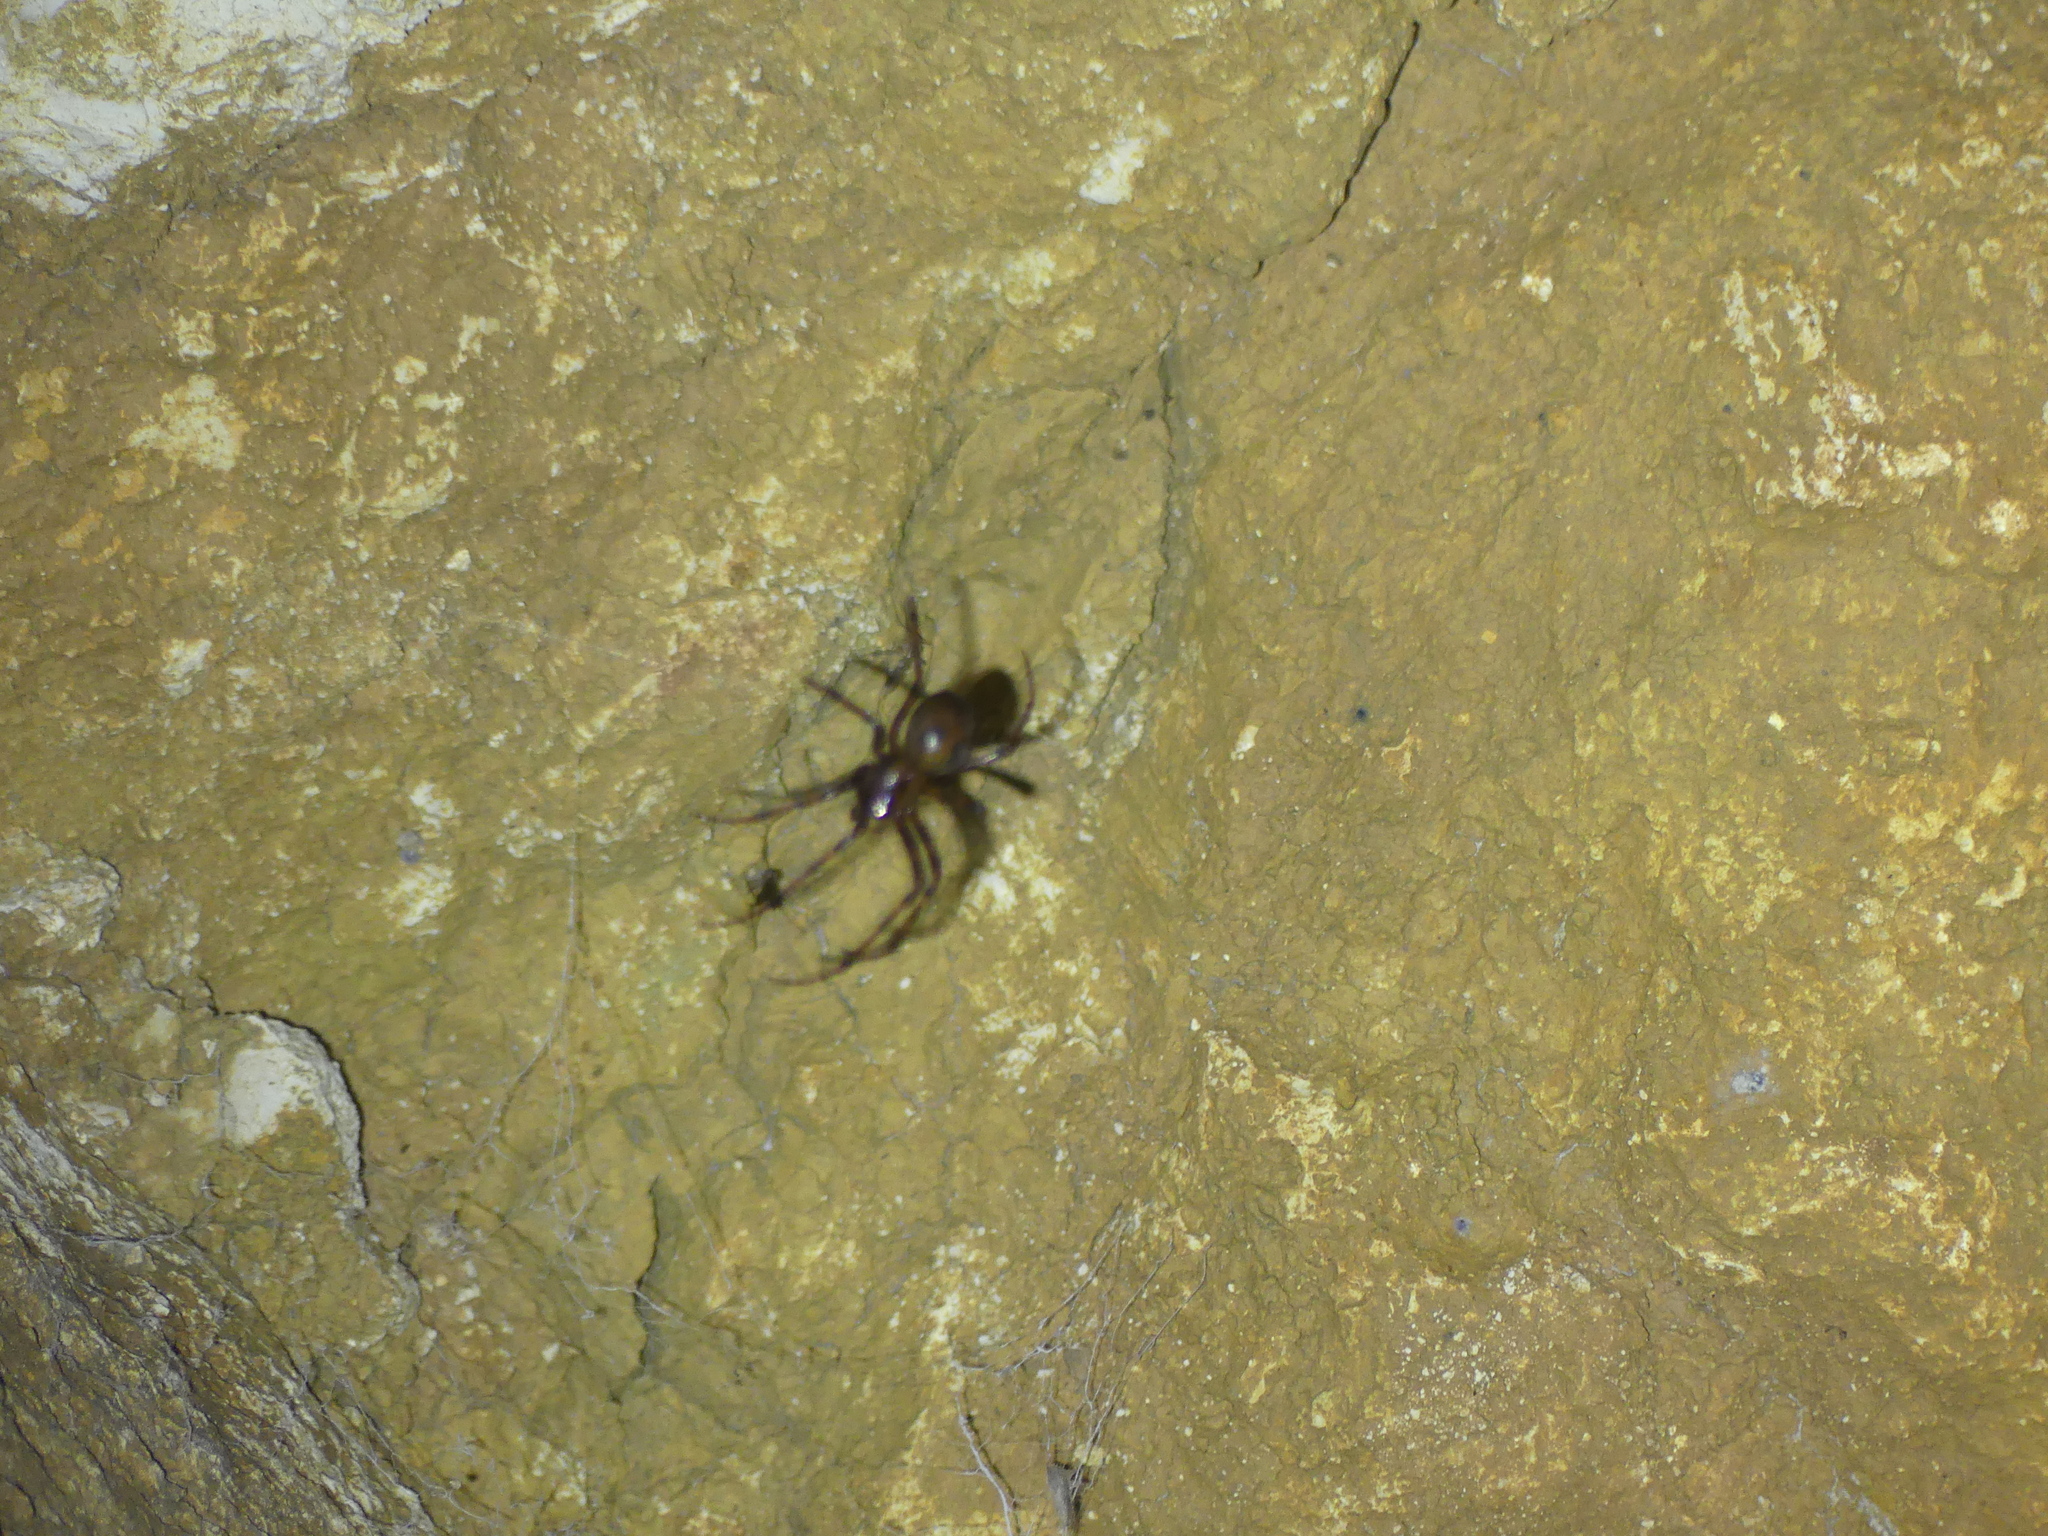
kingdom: Animalia
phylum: Arthropoda
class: Arachnida
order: Araneae
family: Tetragnathidae
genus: Meta
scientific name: Meta menardi
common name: Cave spider
